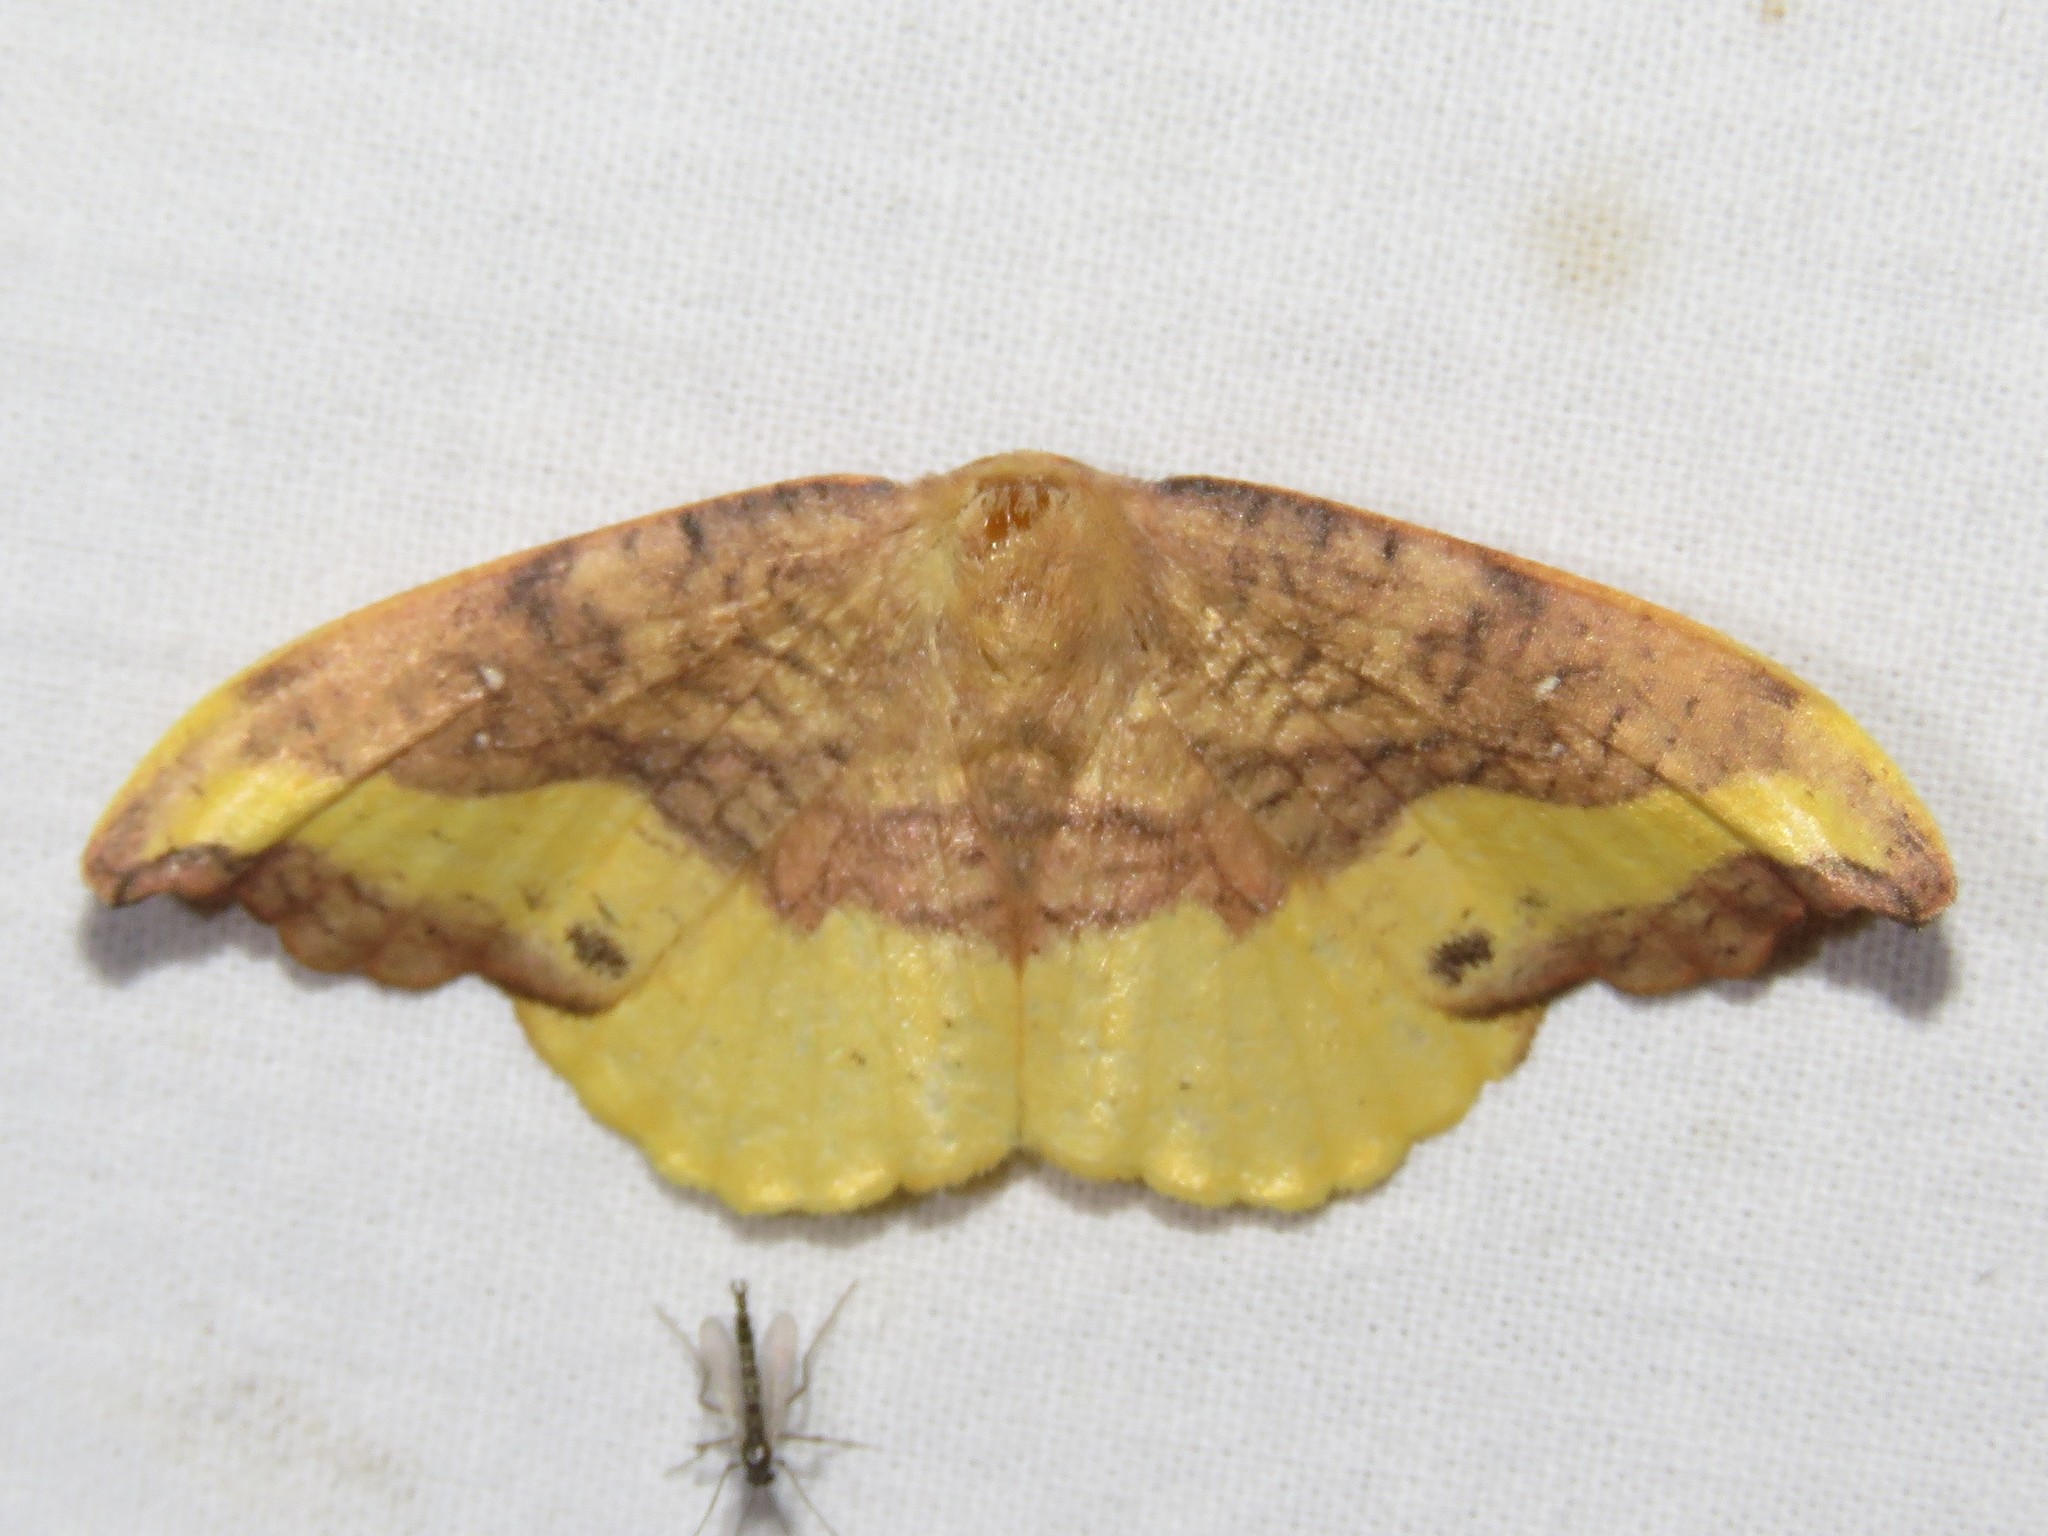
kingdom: Animalia
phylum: Arthropoda
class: Insecta
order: Lepidoptera
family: Drepanidae
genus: Oreta
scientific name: Oreta rosea
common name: Rose hooktip
